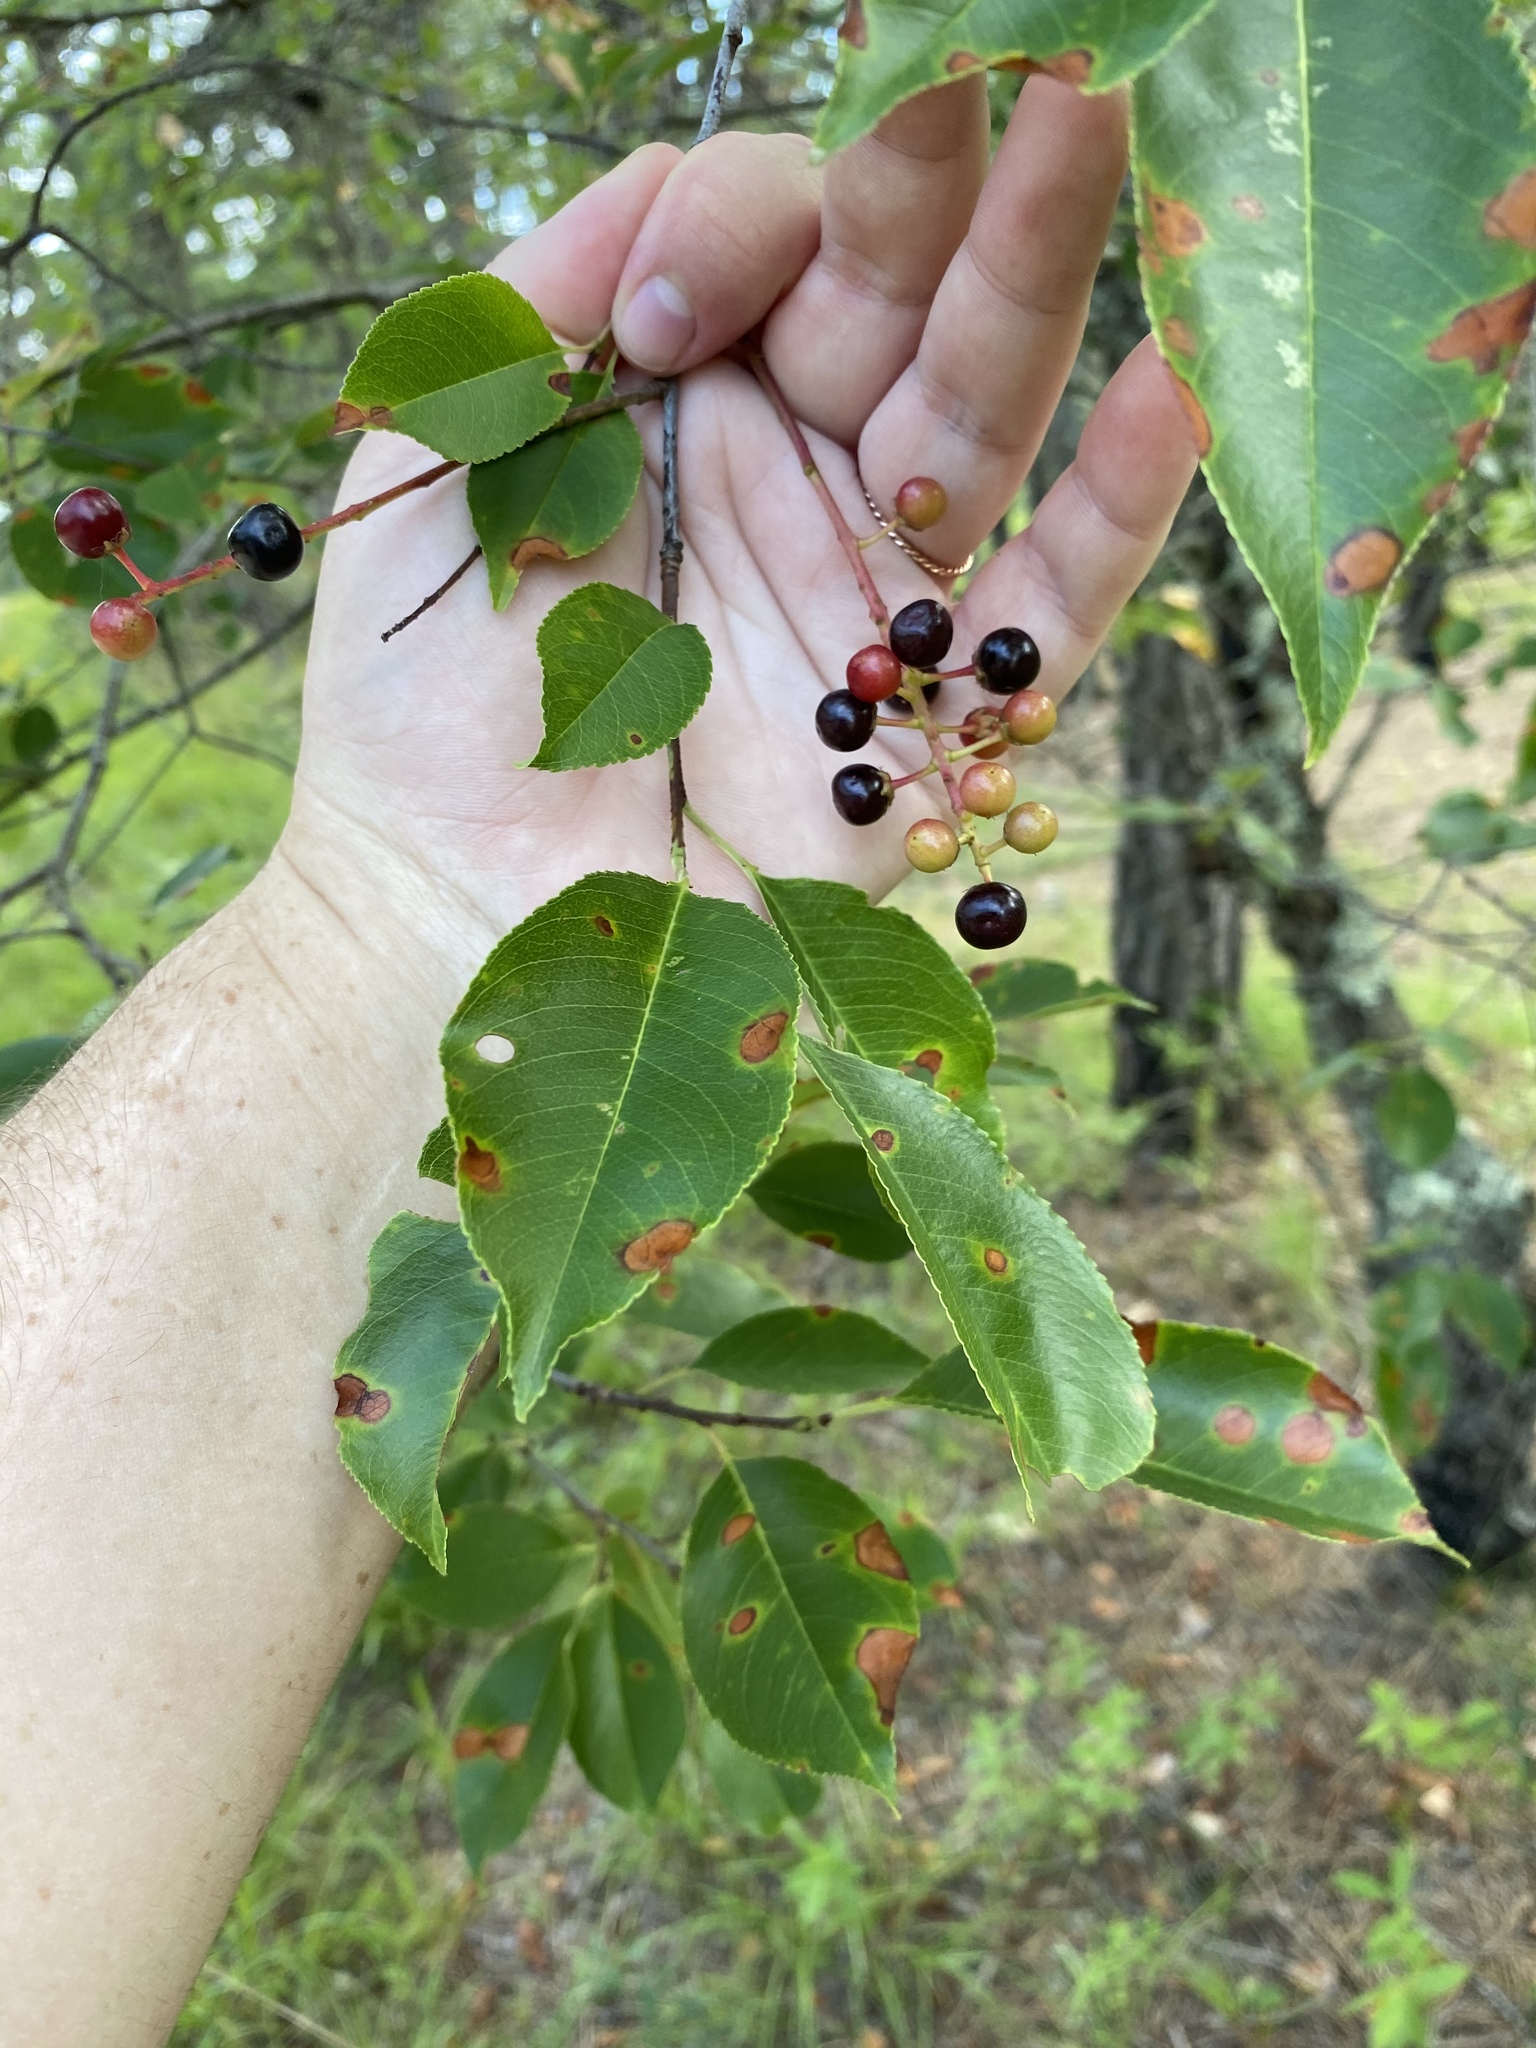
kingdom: Plantae
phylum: Tracheophyta
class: Magnoliopsida
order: Rosales
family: Rosaceae
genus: Prunus
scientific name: Prunus serotina
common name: Black cherry
